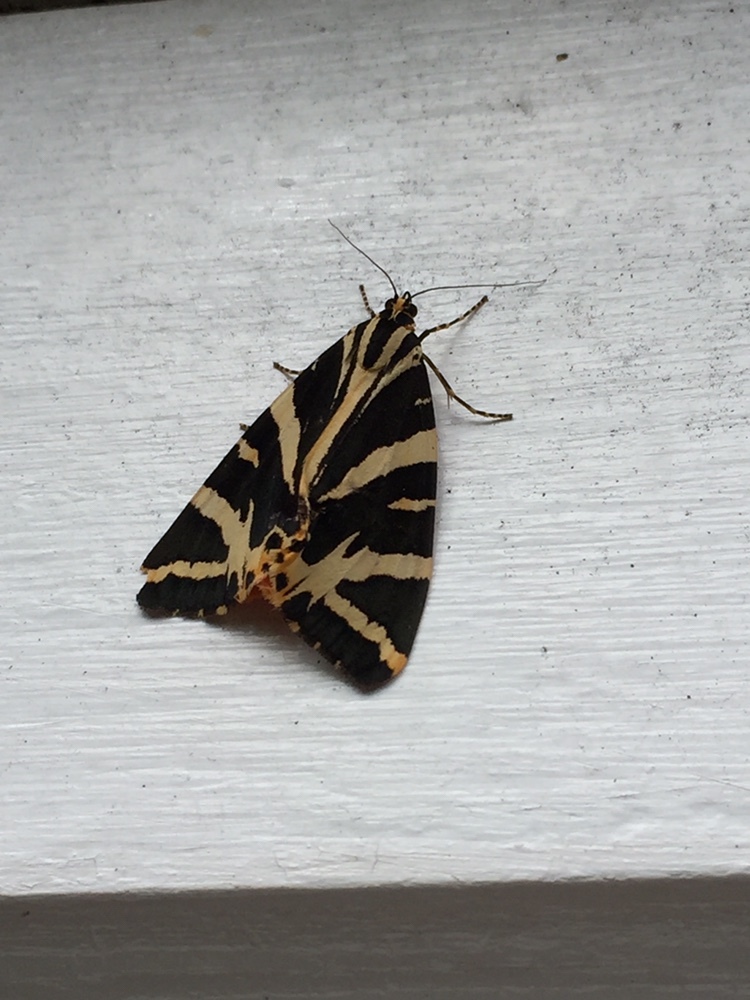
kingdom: Animalia
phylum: Arthropoda
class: Insecta
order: Lepidoptera
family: Erebidae
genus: Euplagia
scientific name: Euplagia quadripunctaria
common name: Jersey tiger
